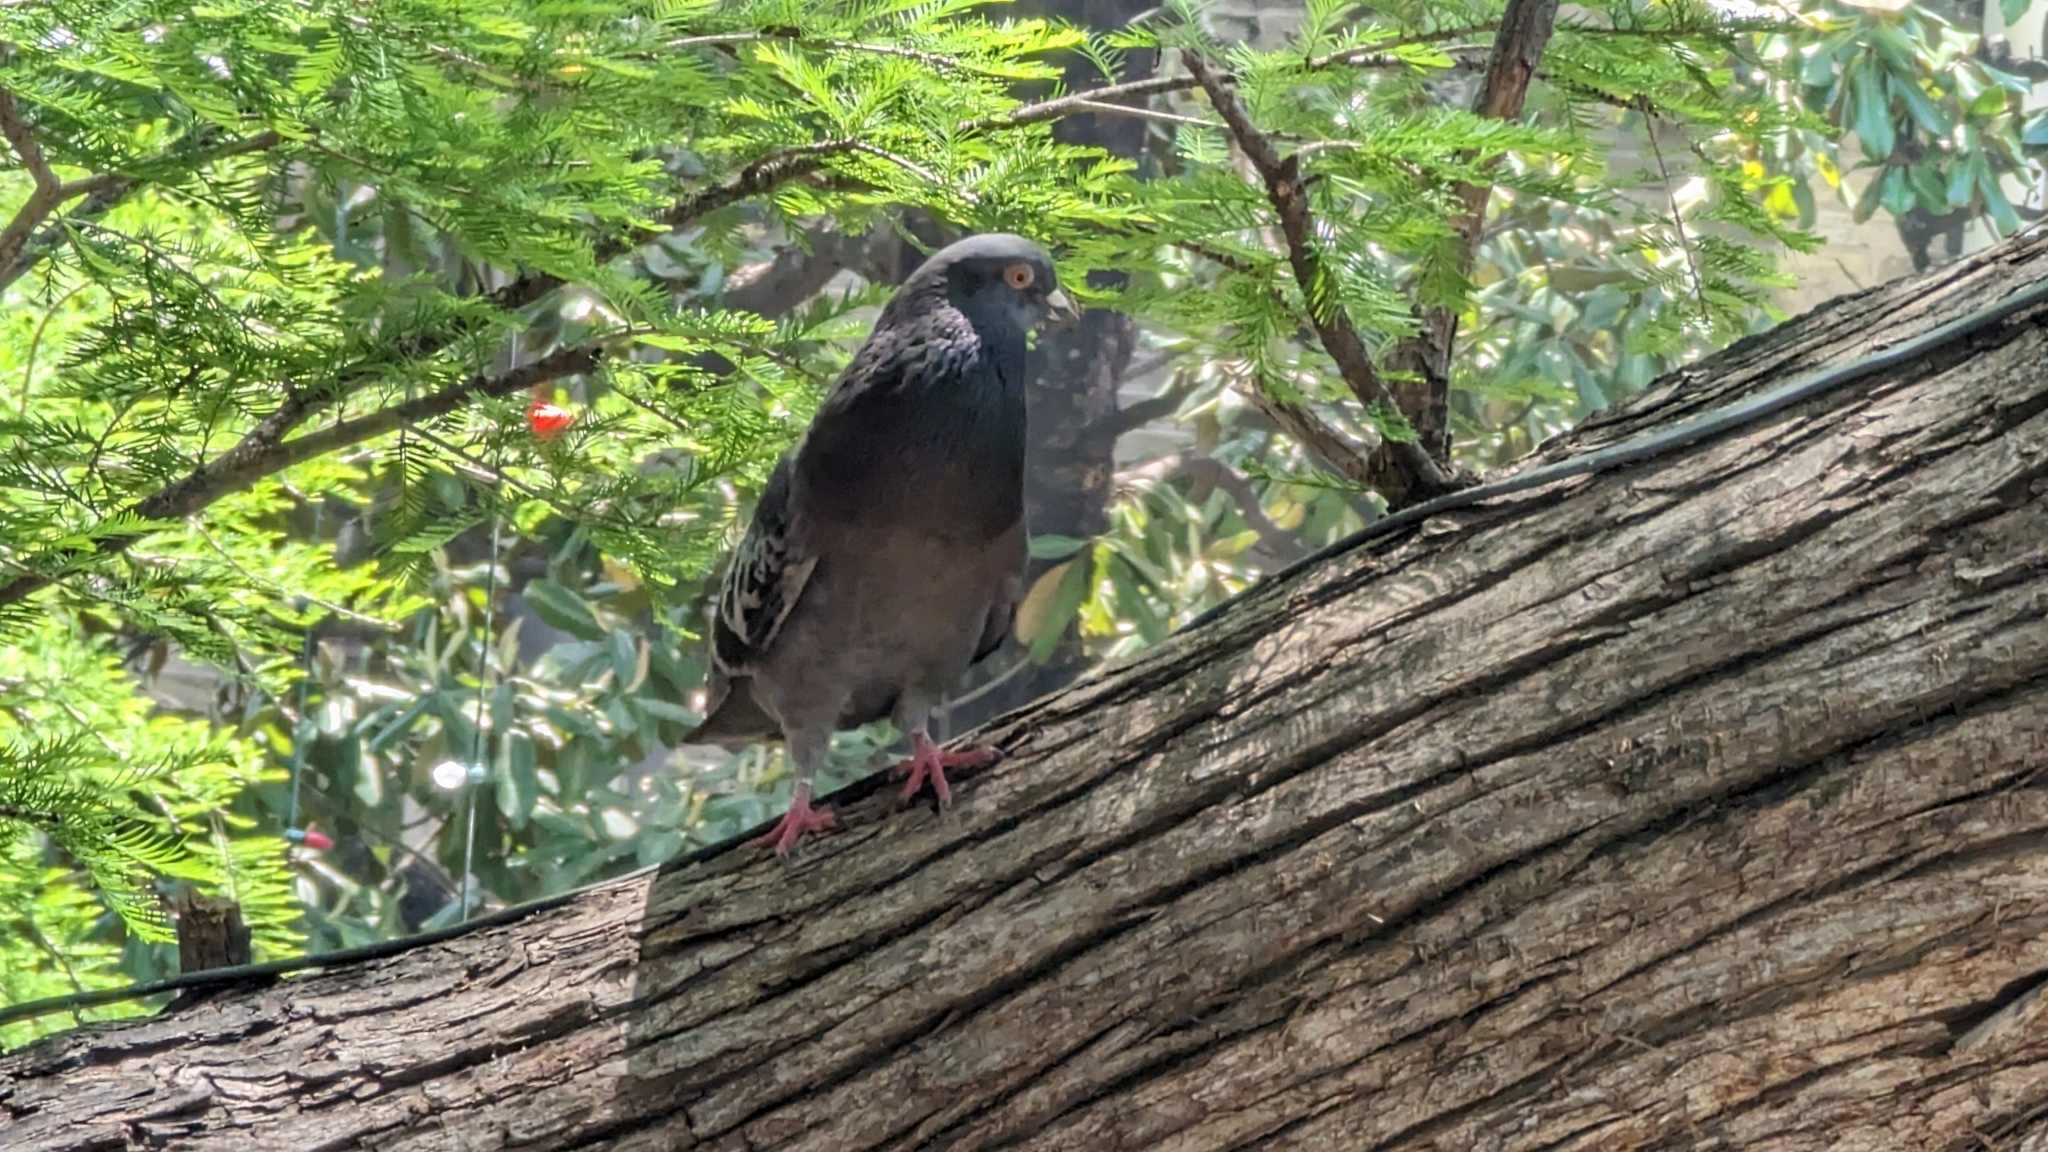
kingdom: Animalia
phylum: Chordata
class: Aves
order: Columbiformes
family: Columbidae
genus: Columba
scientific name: Columba livia
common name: Rock pigeon
